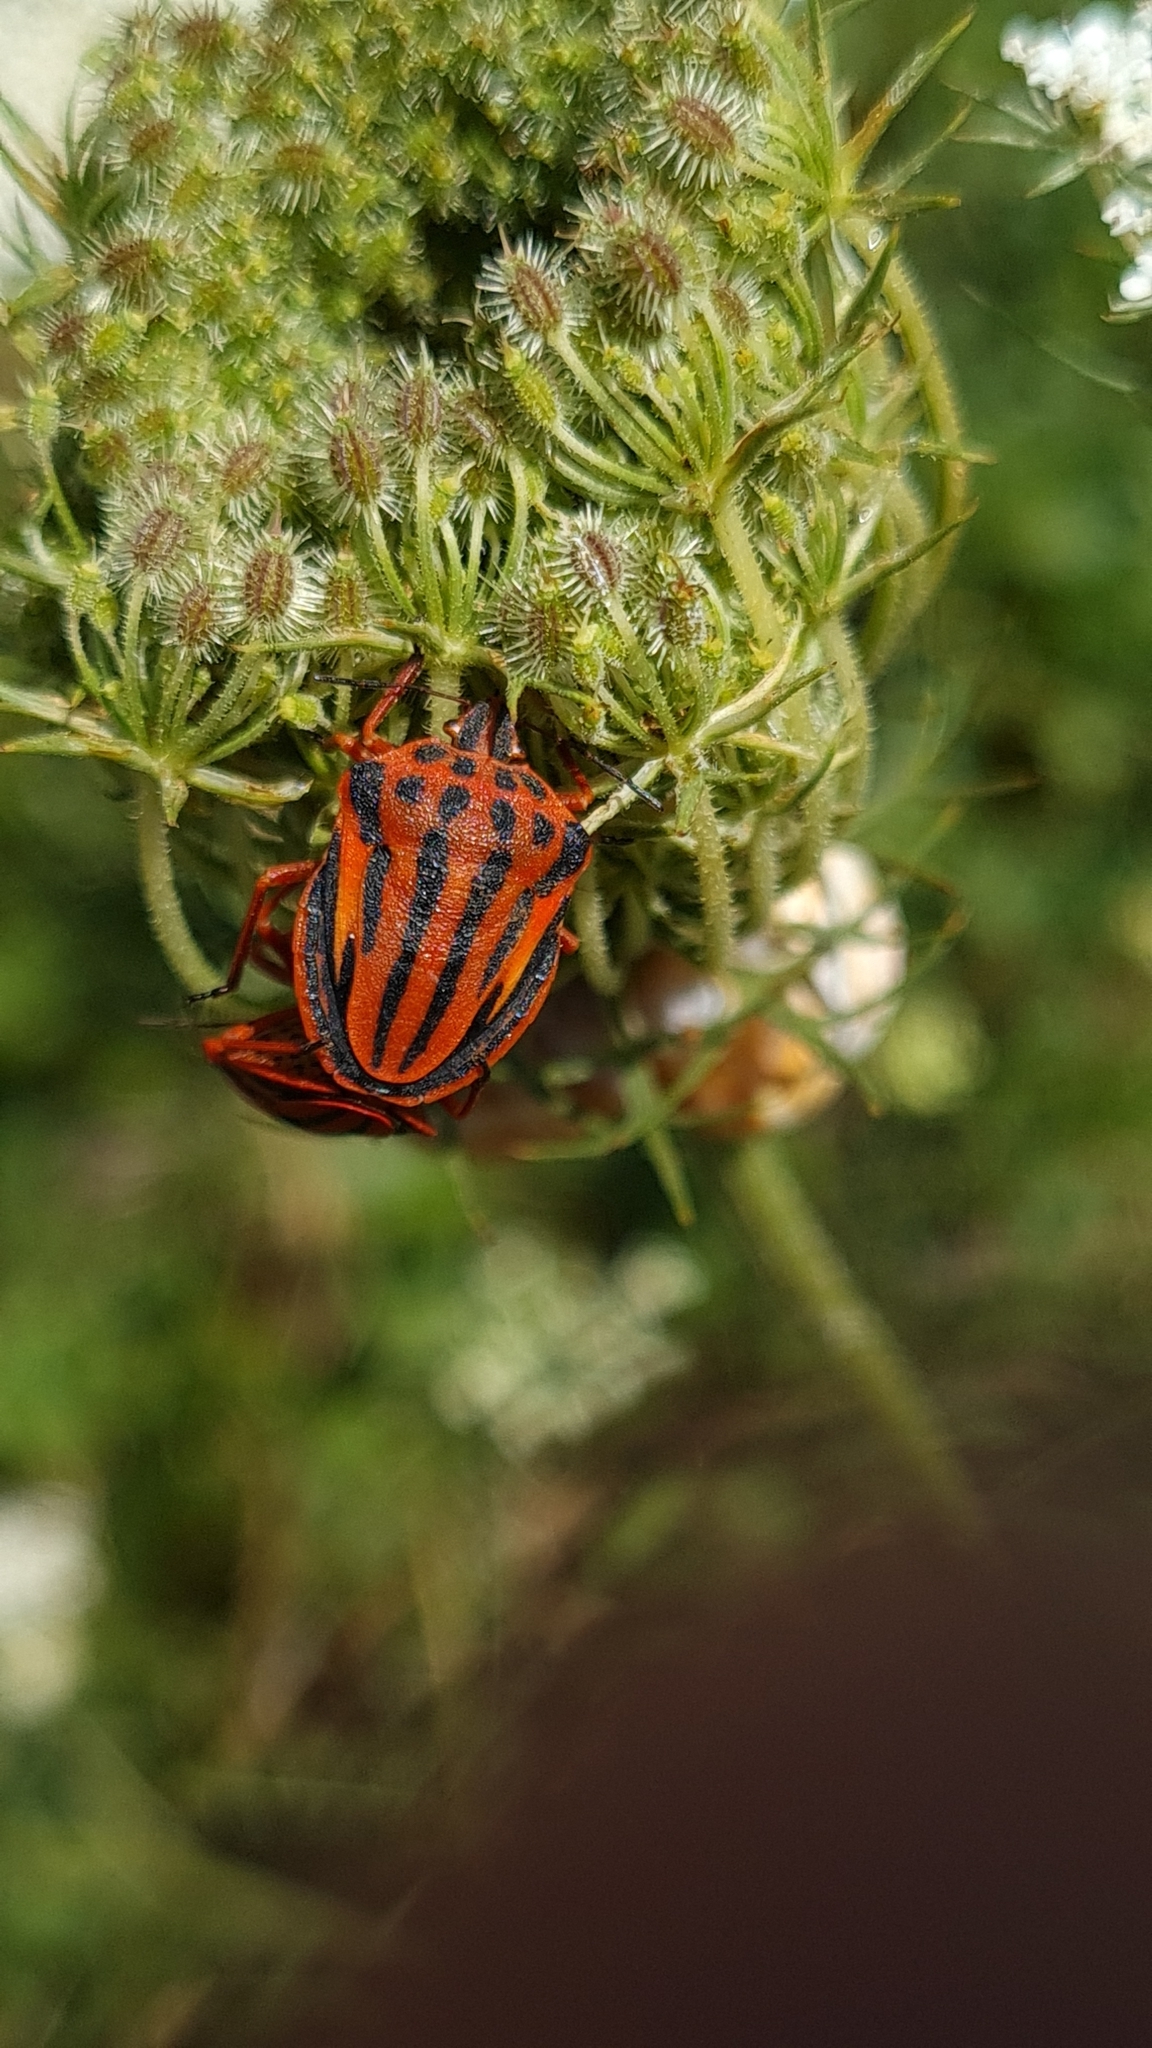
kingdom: Animalia
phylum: Arthropoda
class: Insecta
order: Hemiptera
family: Pentatomidae
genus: Graphosoma
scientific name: Graphosoma semipunctatum
